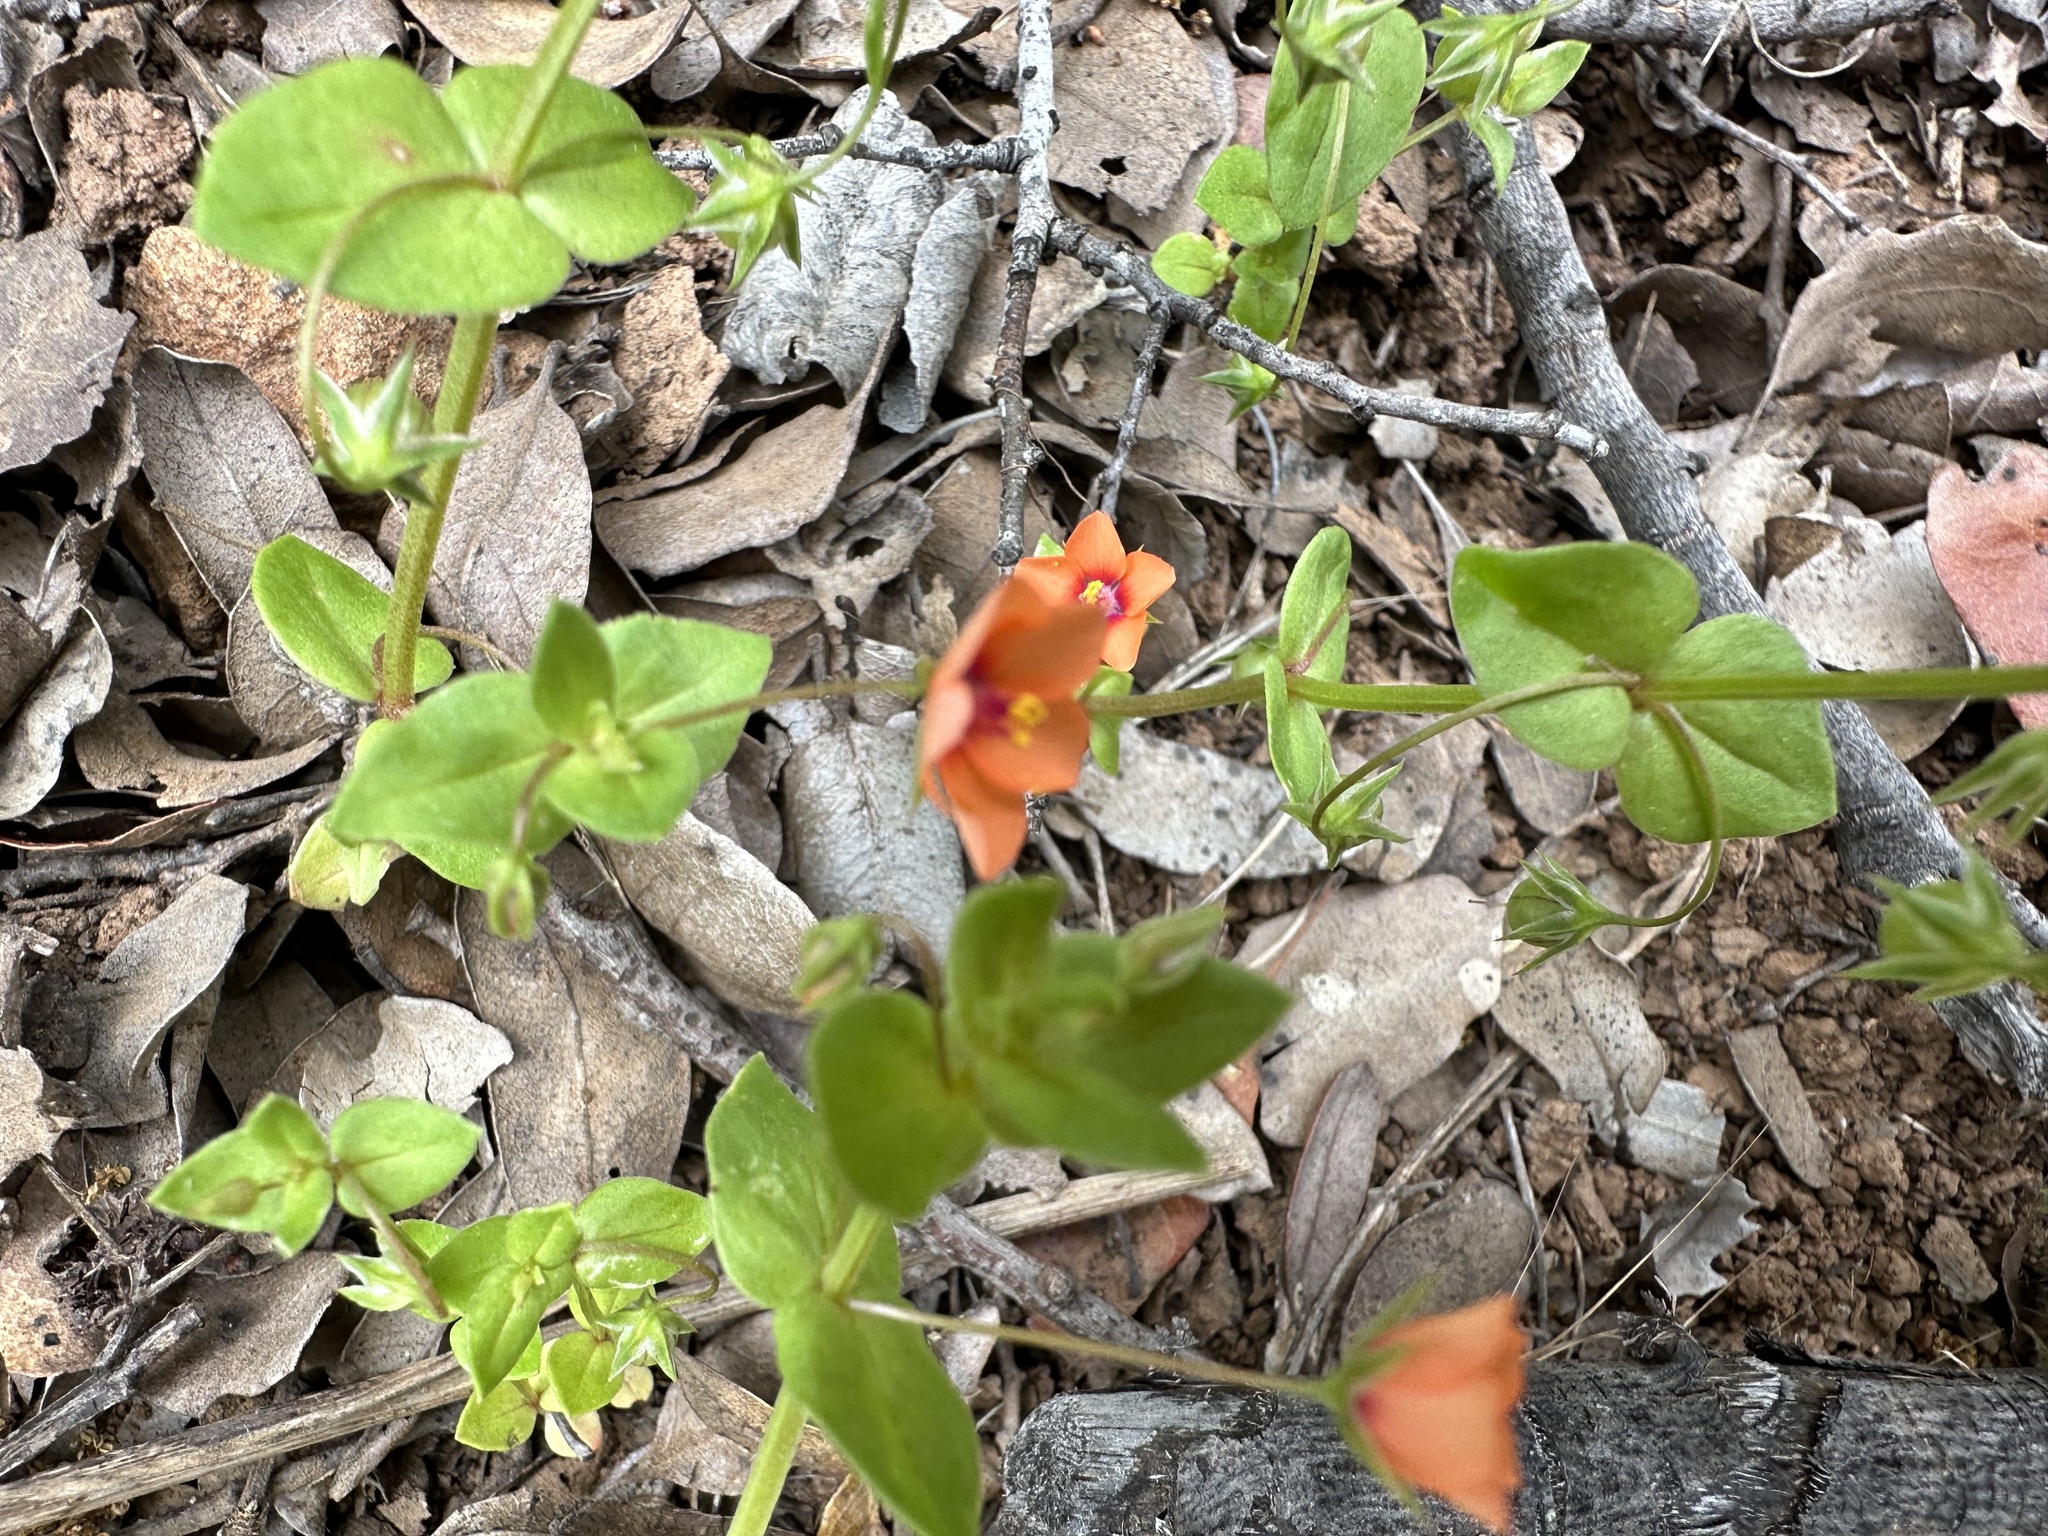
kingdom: Plantae
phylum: Tracheophyta
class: Magnoliopsida
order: Ericales
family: Primulaceae
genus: Lysimachia
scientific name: Lysimachia arvensis
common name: Scarlet pimpernel
